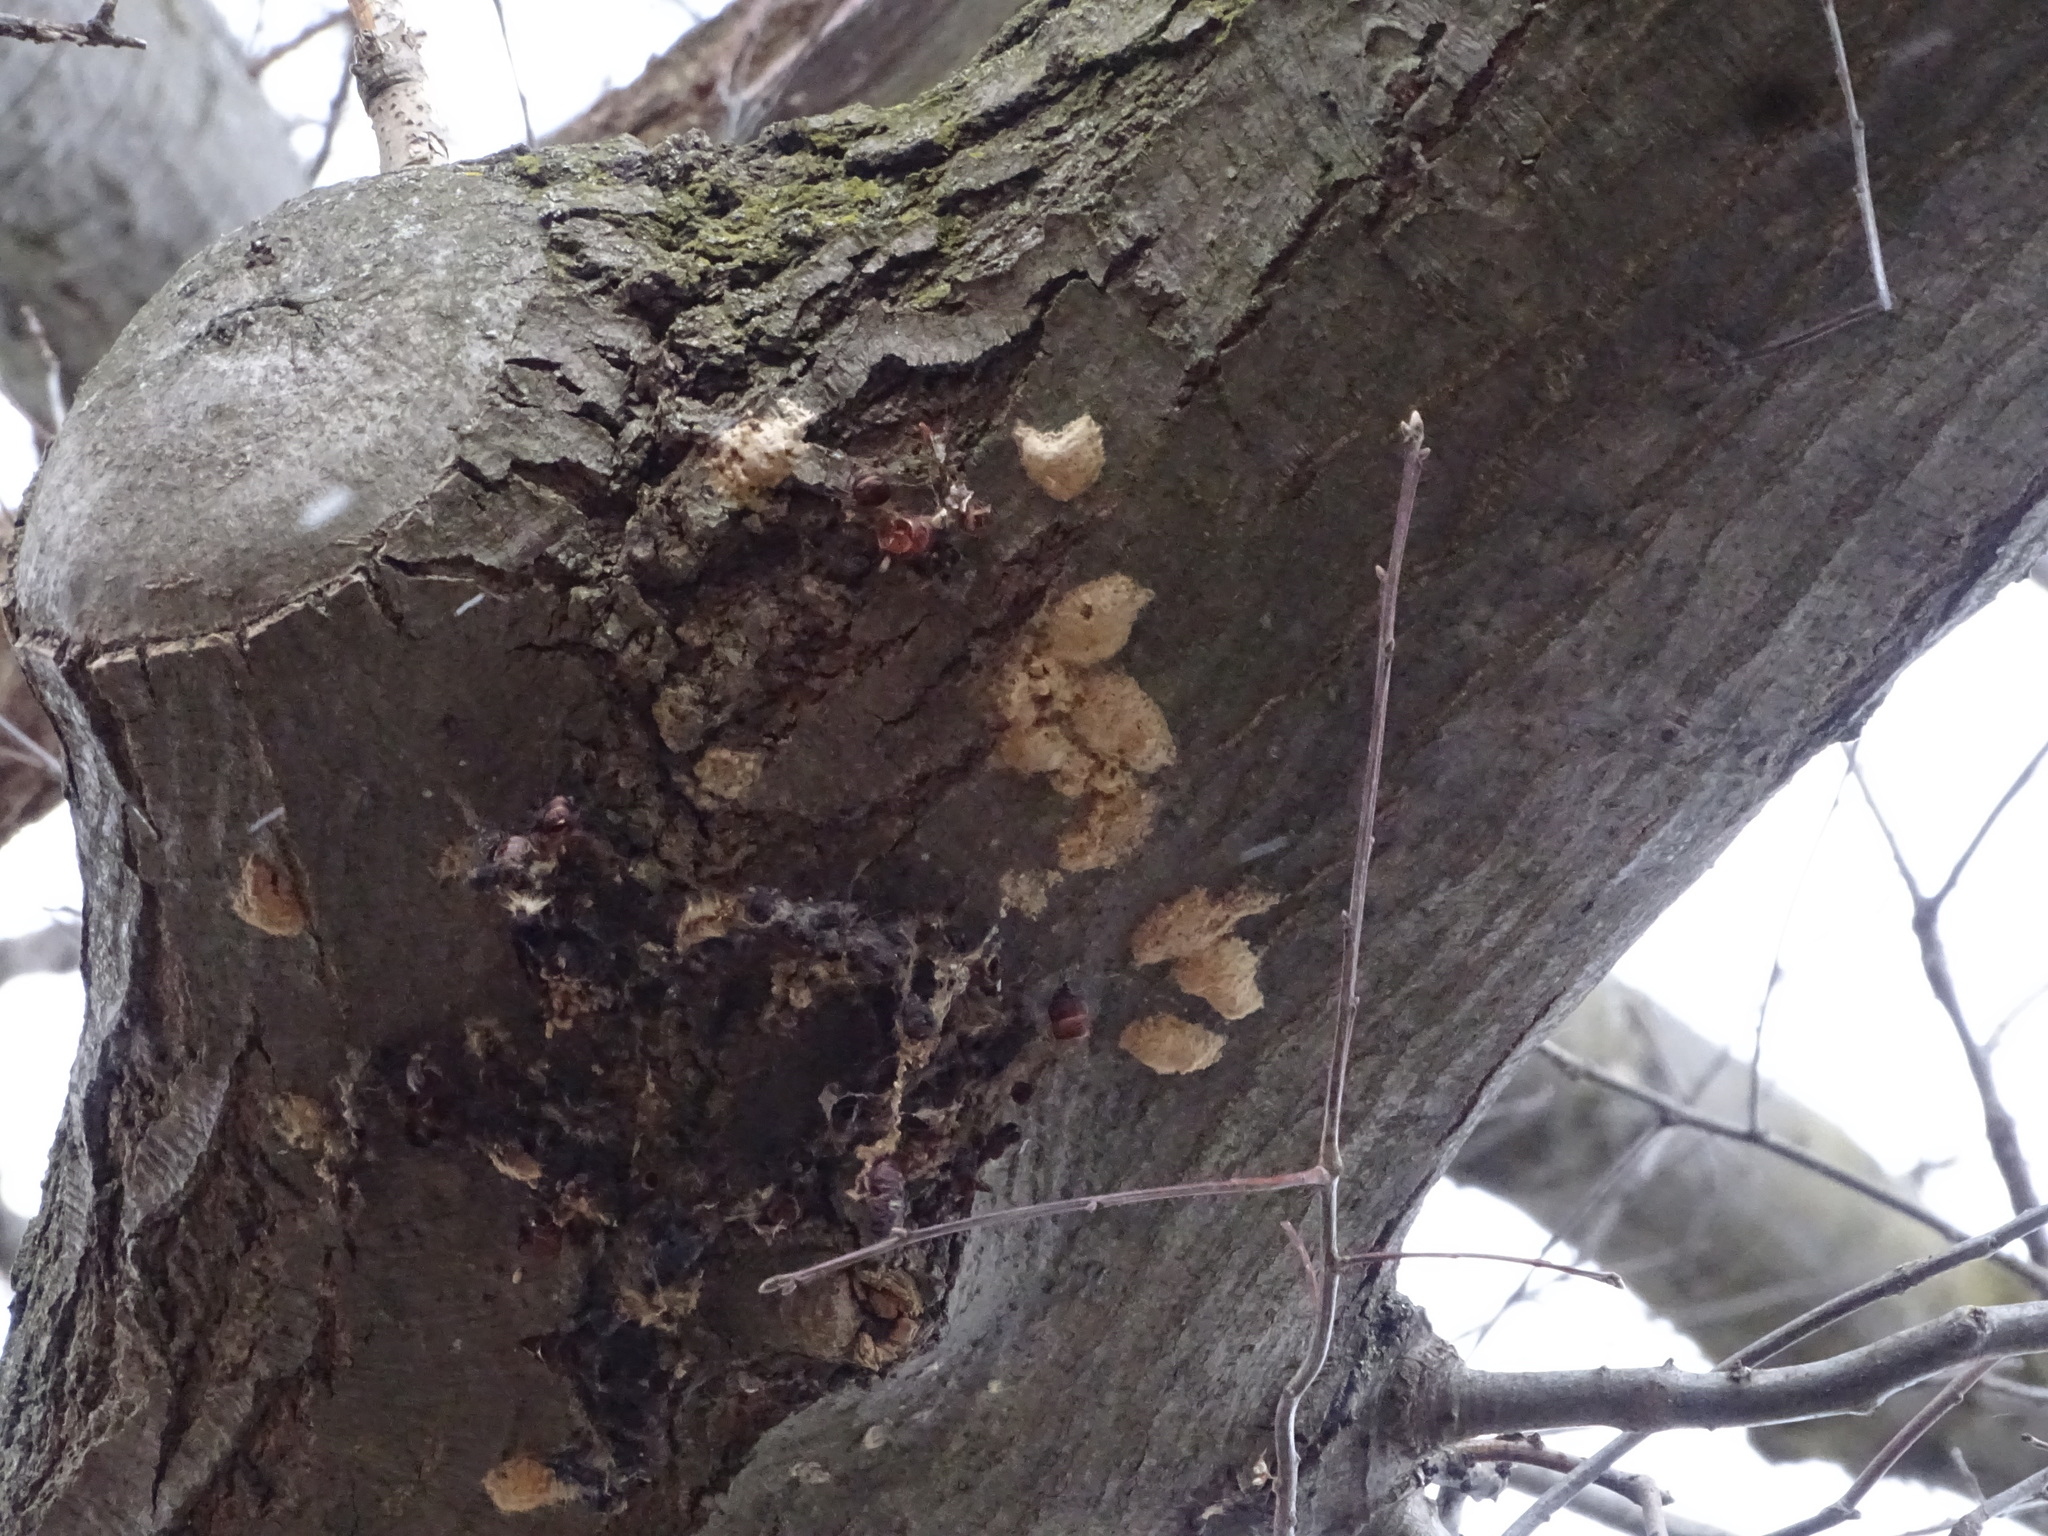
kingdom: Animalia
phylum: Arthropoda
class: Insecta
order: Lepidoptera
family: Erebidae
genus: Lymantria
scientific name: Lymantria dispar
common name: Gypsy moth
